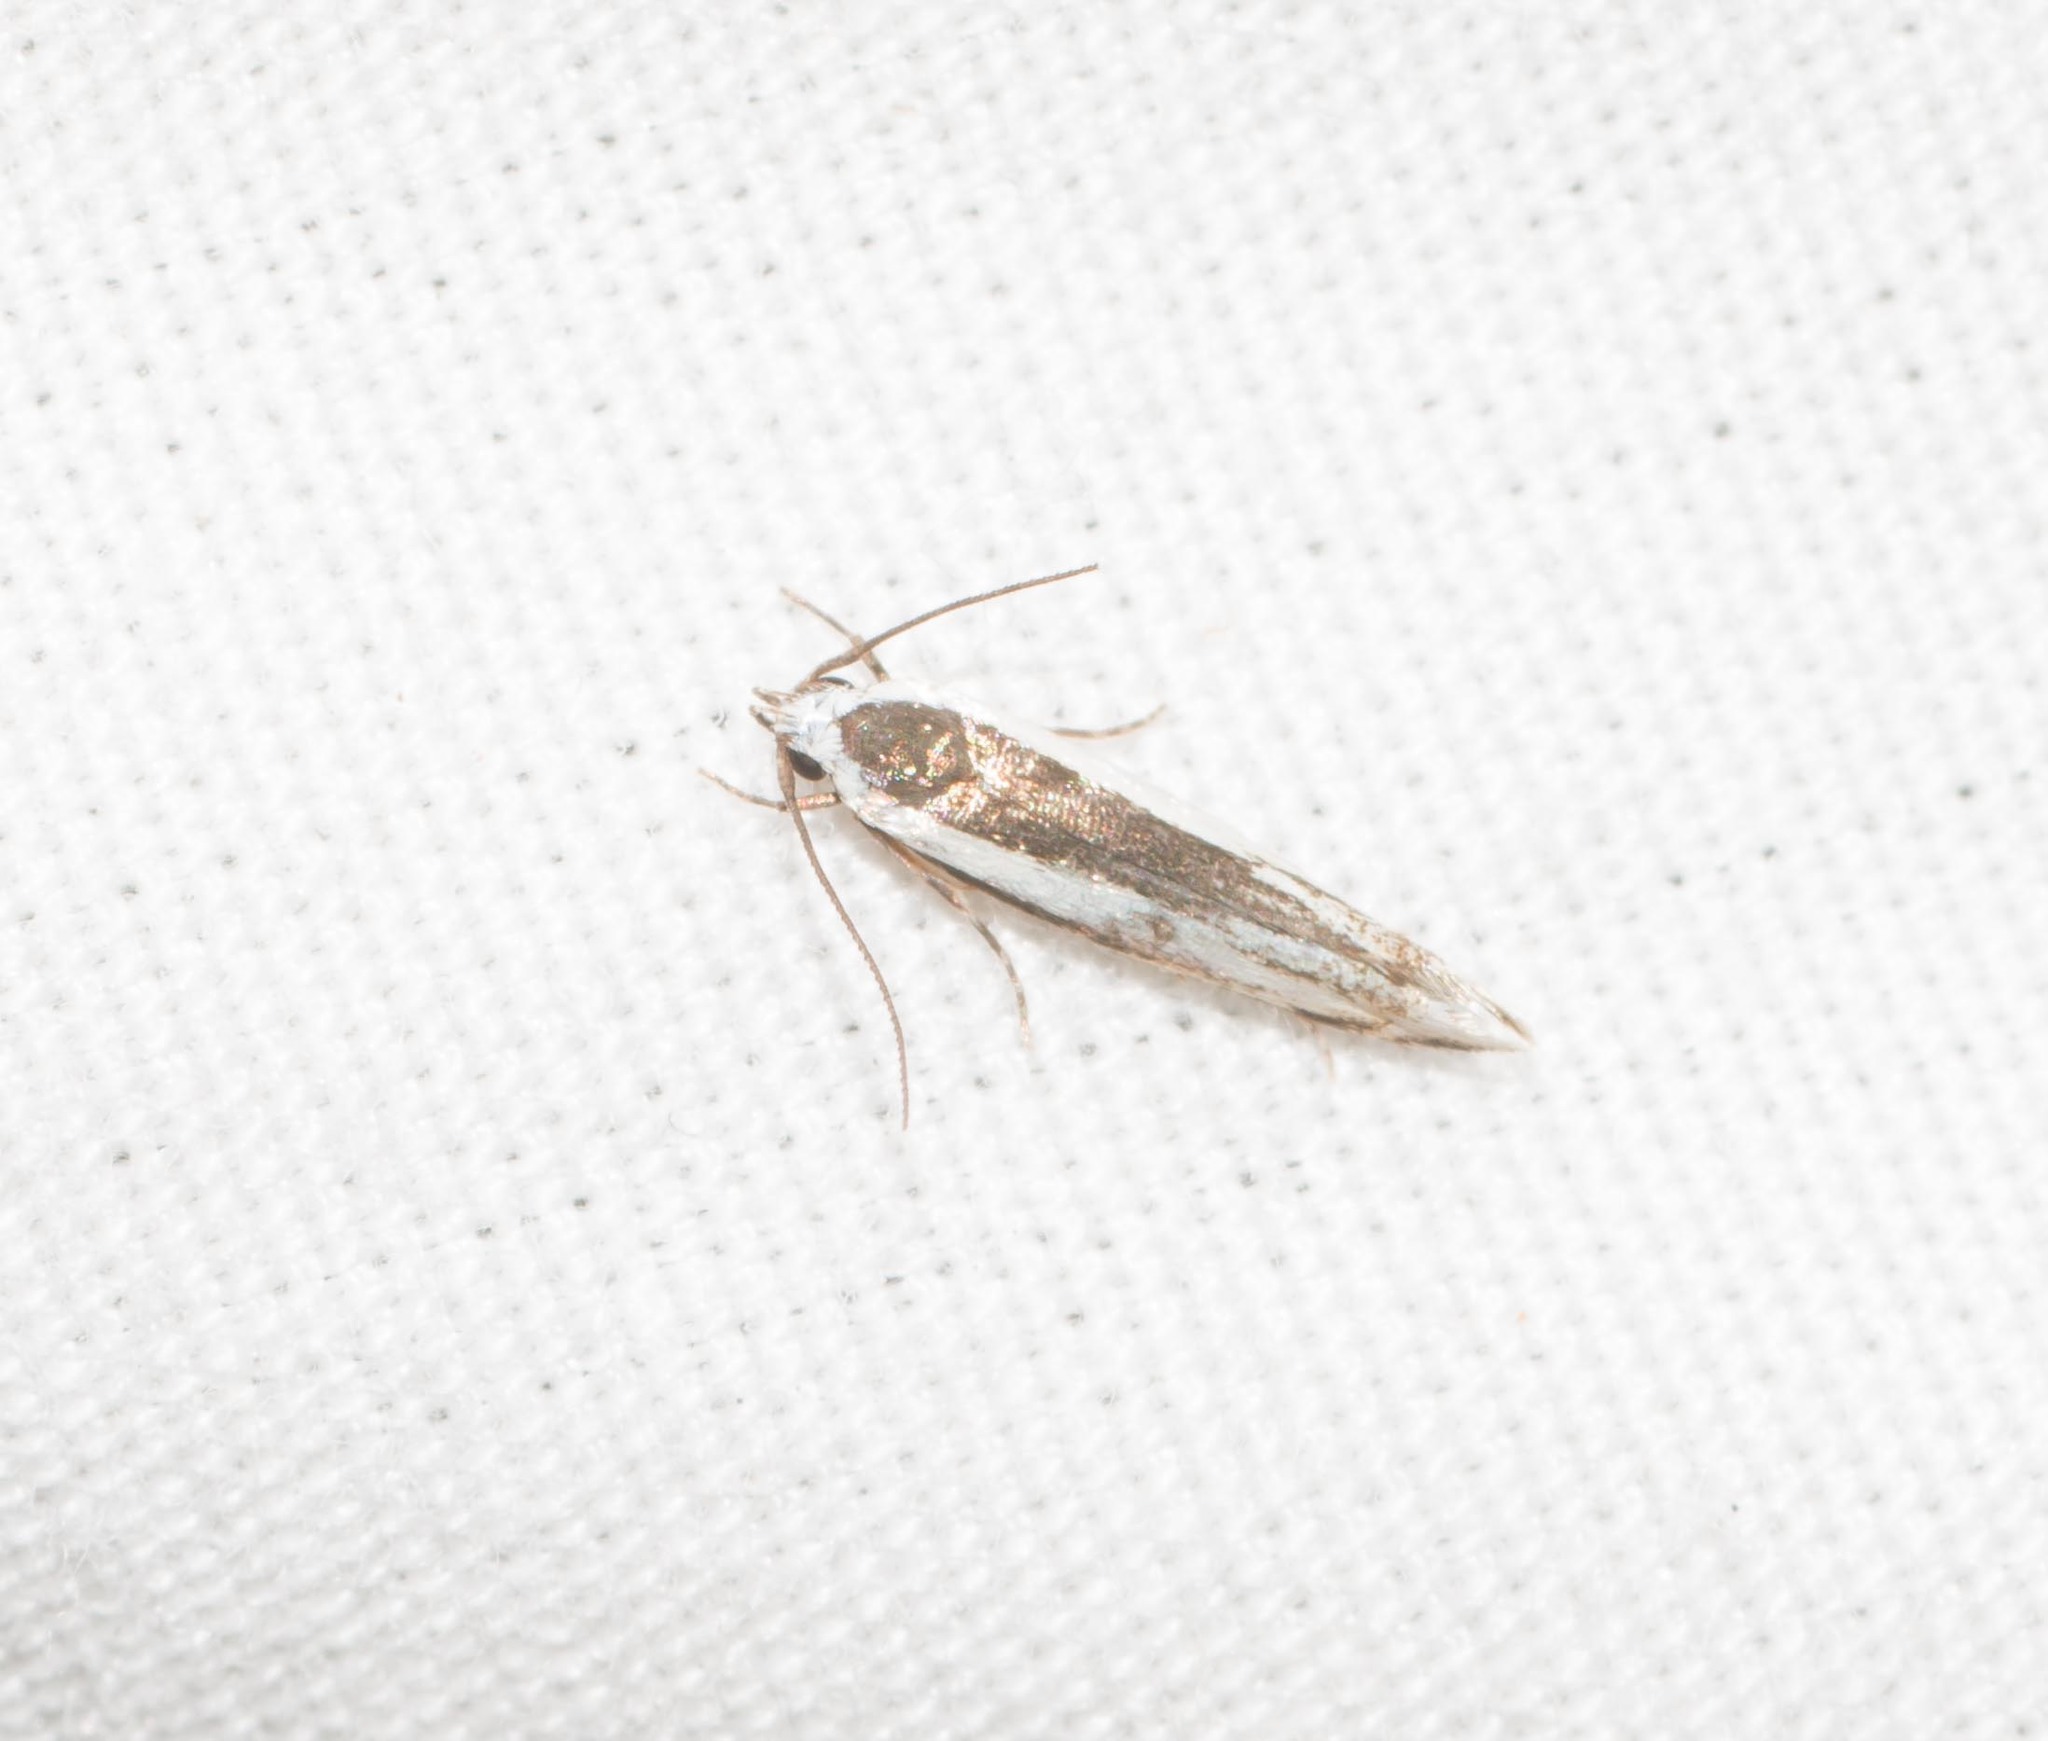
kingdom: Animalia
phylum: Arthropoda
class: Insecta
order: Lepidoptera
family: Cosmopterigidae
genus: Neelysia
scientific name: Neelysia alveata
